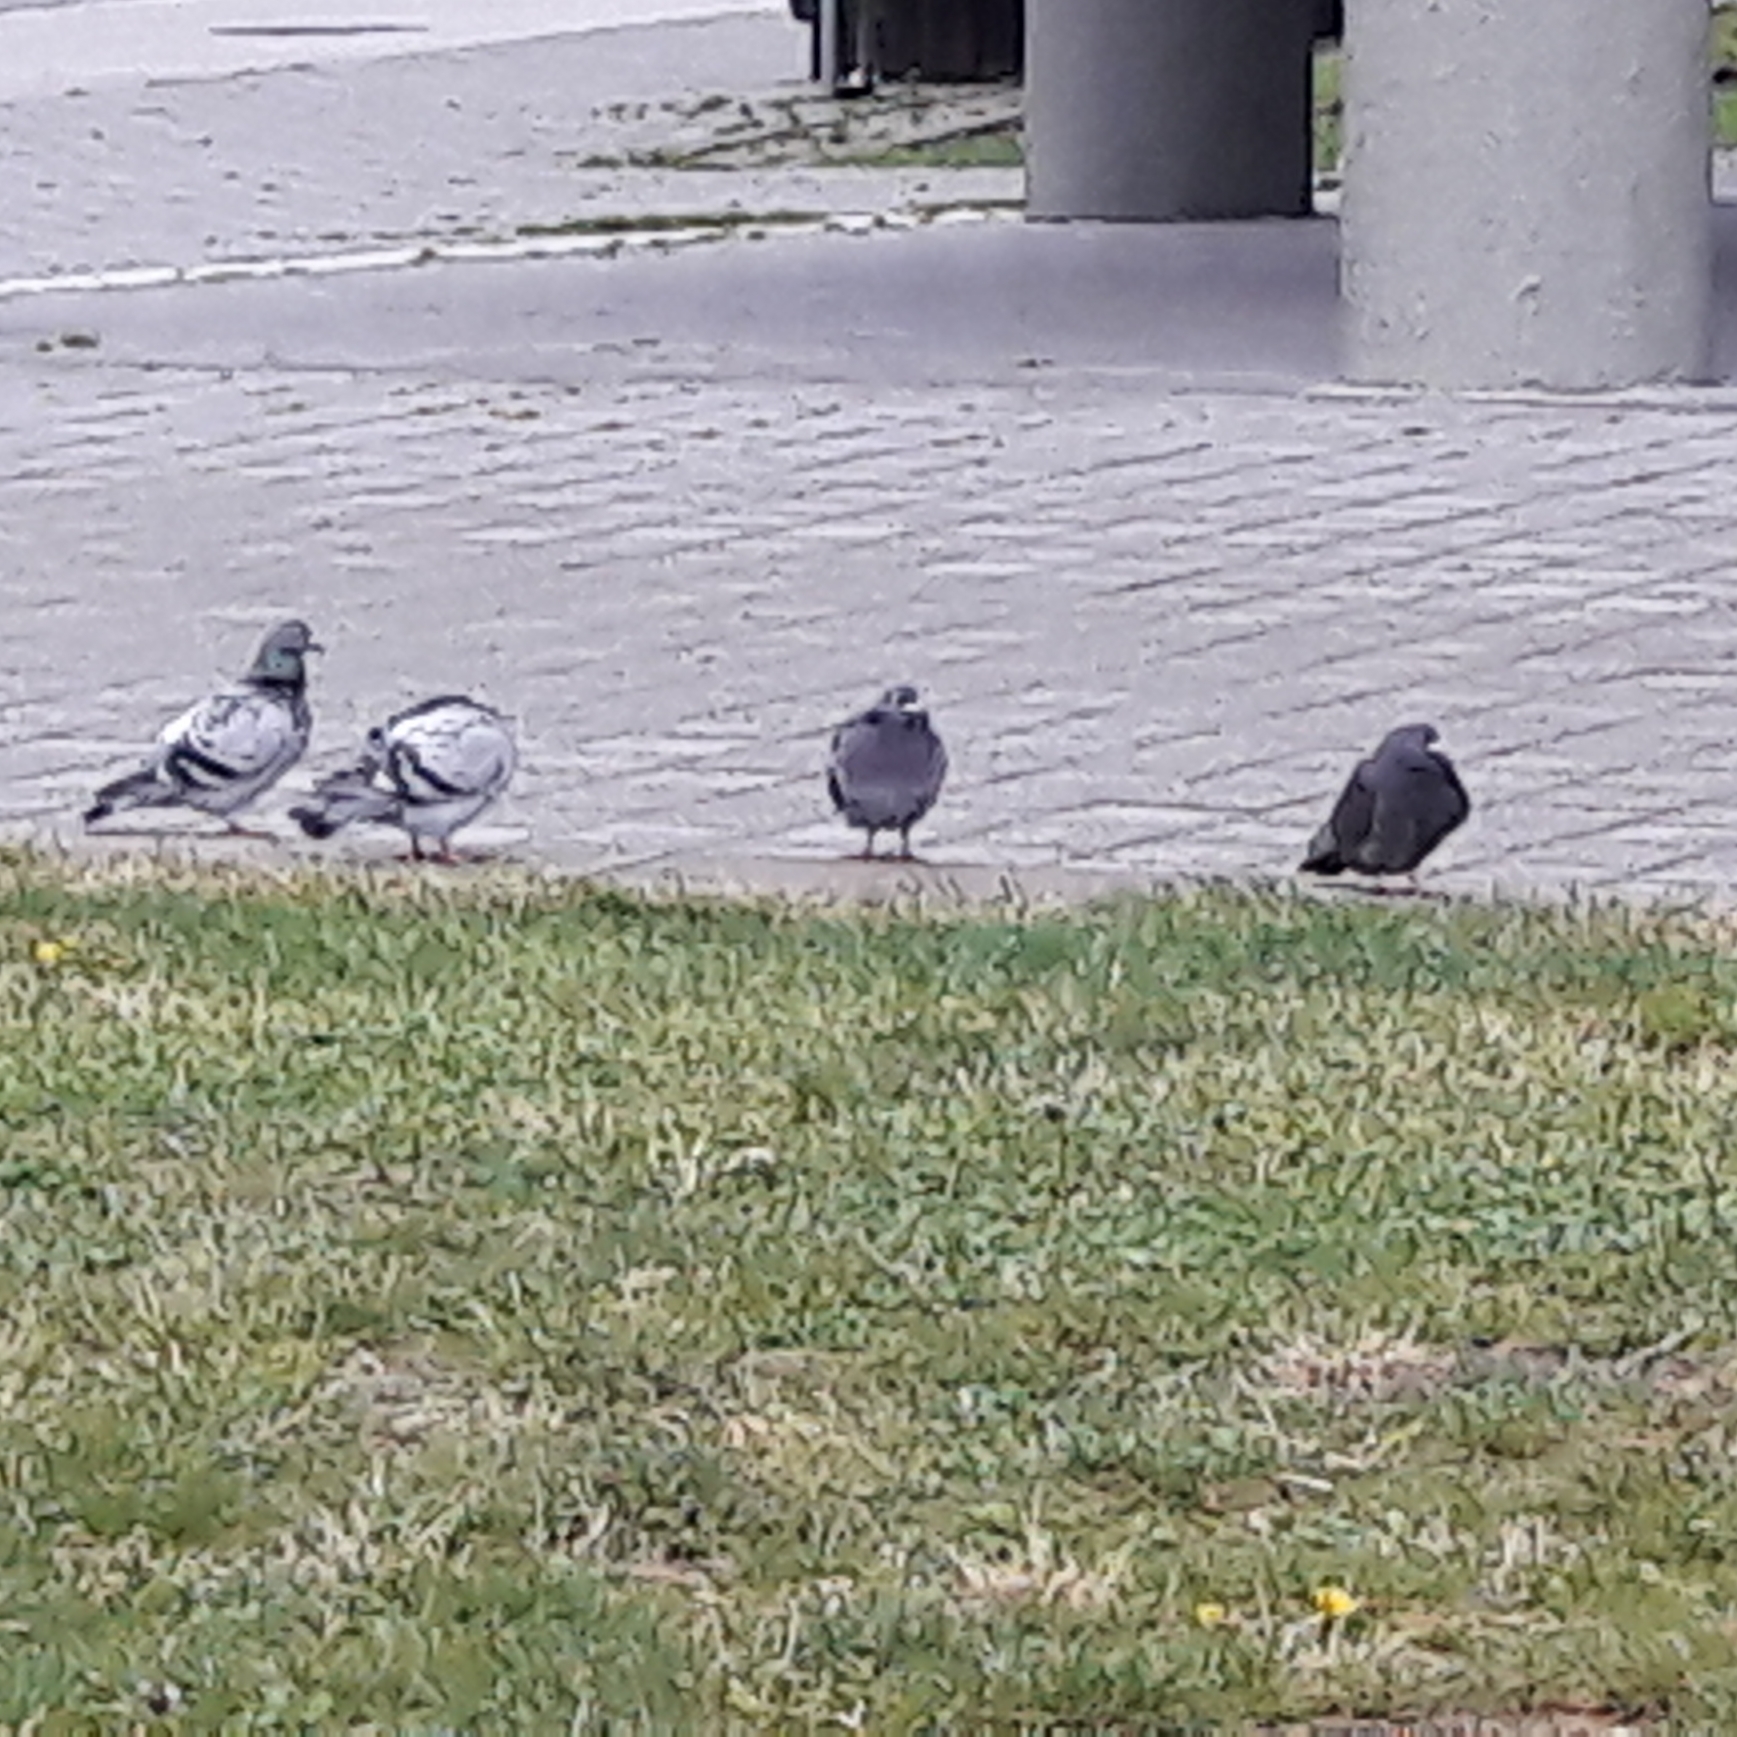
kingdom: Animalia
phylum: Chordata
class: Aves
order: Columbiformes
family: Columbidae
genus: Columba
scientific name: Columba livia
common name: Rock pigeon
